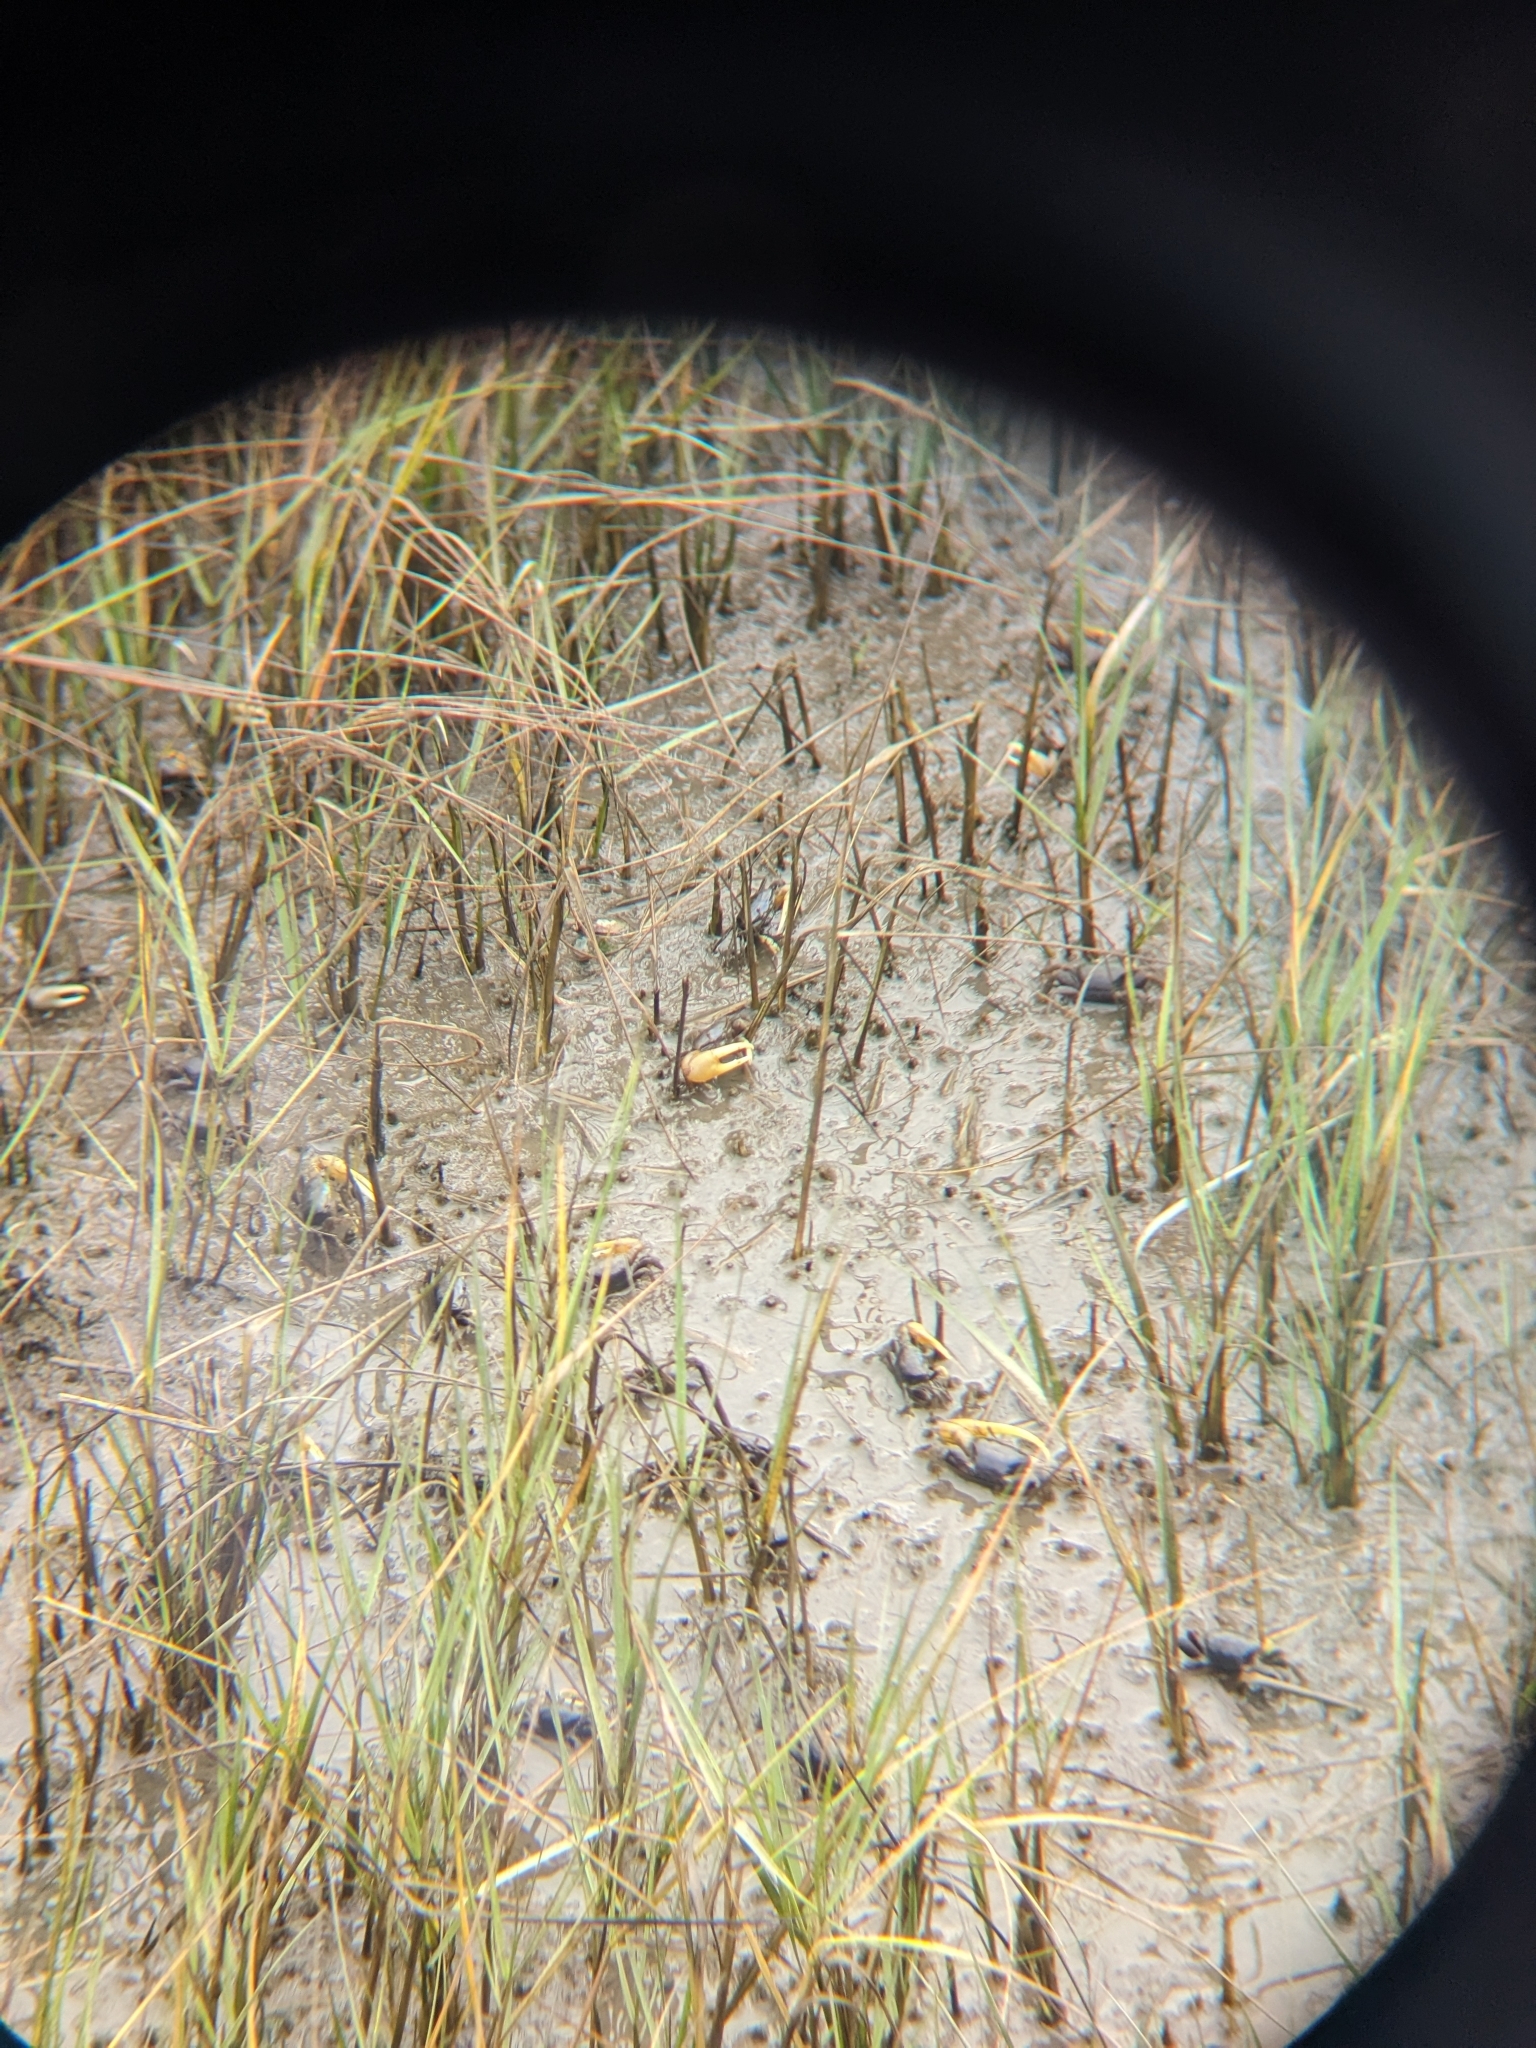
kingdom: Animalia
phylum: Arthropoda
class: Malacostraca
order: Decapoda
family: Ocypodidae
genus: Minuca
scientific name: Minuca pugnax
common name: Mud fiddler crab
